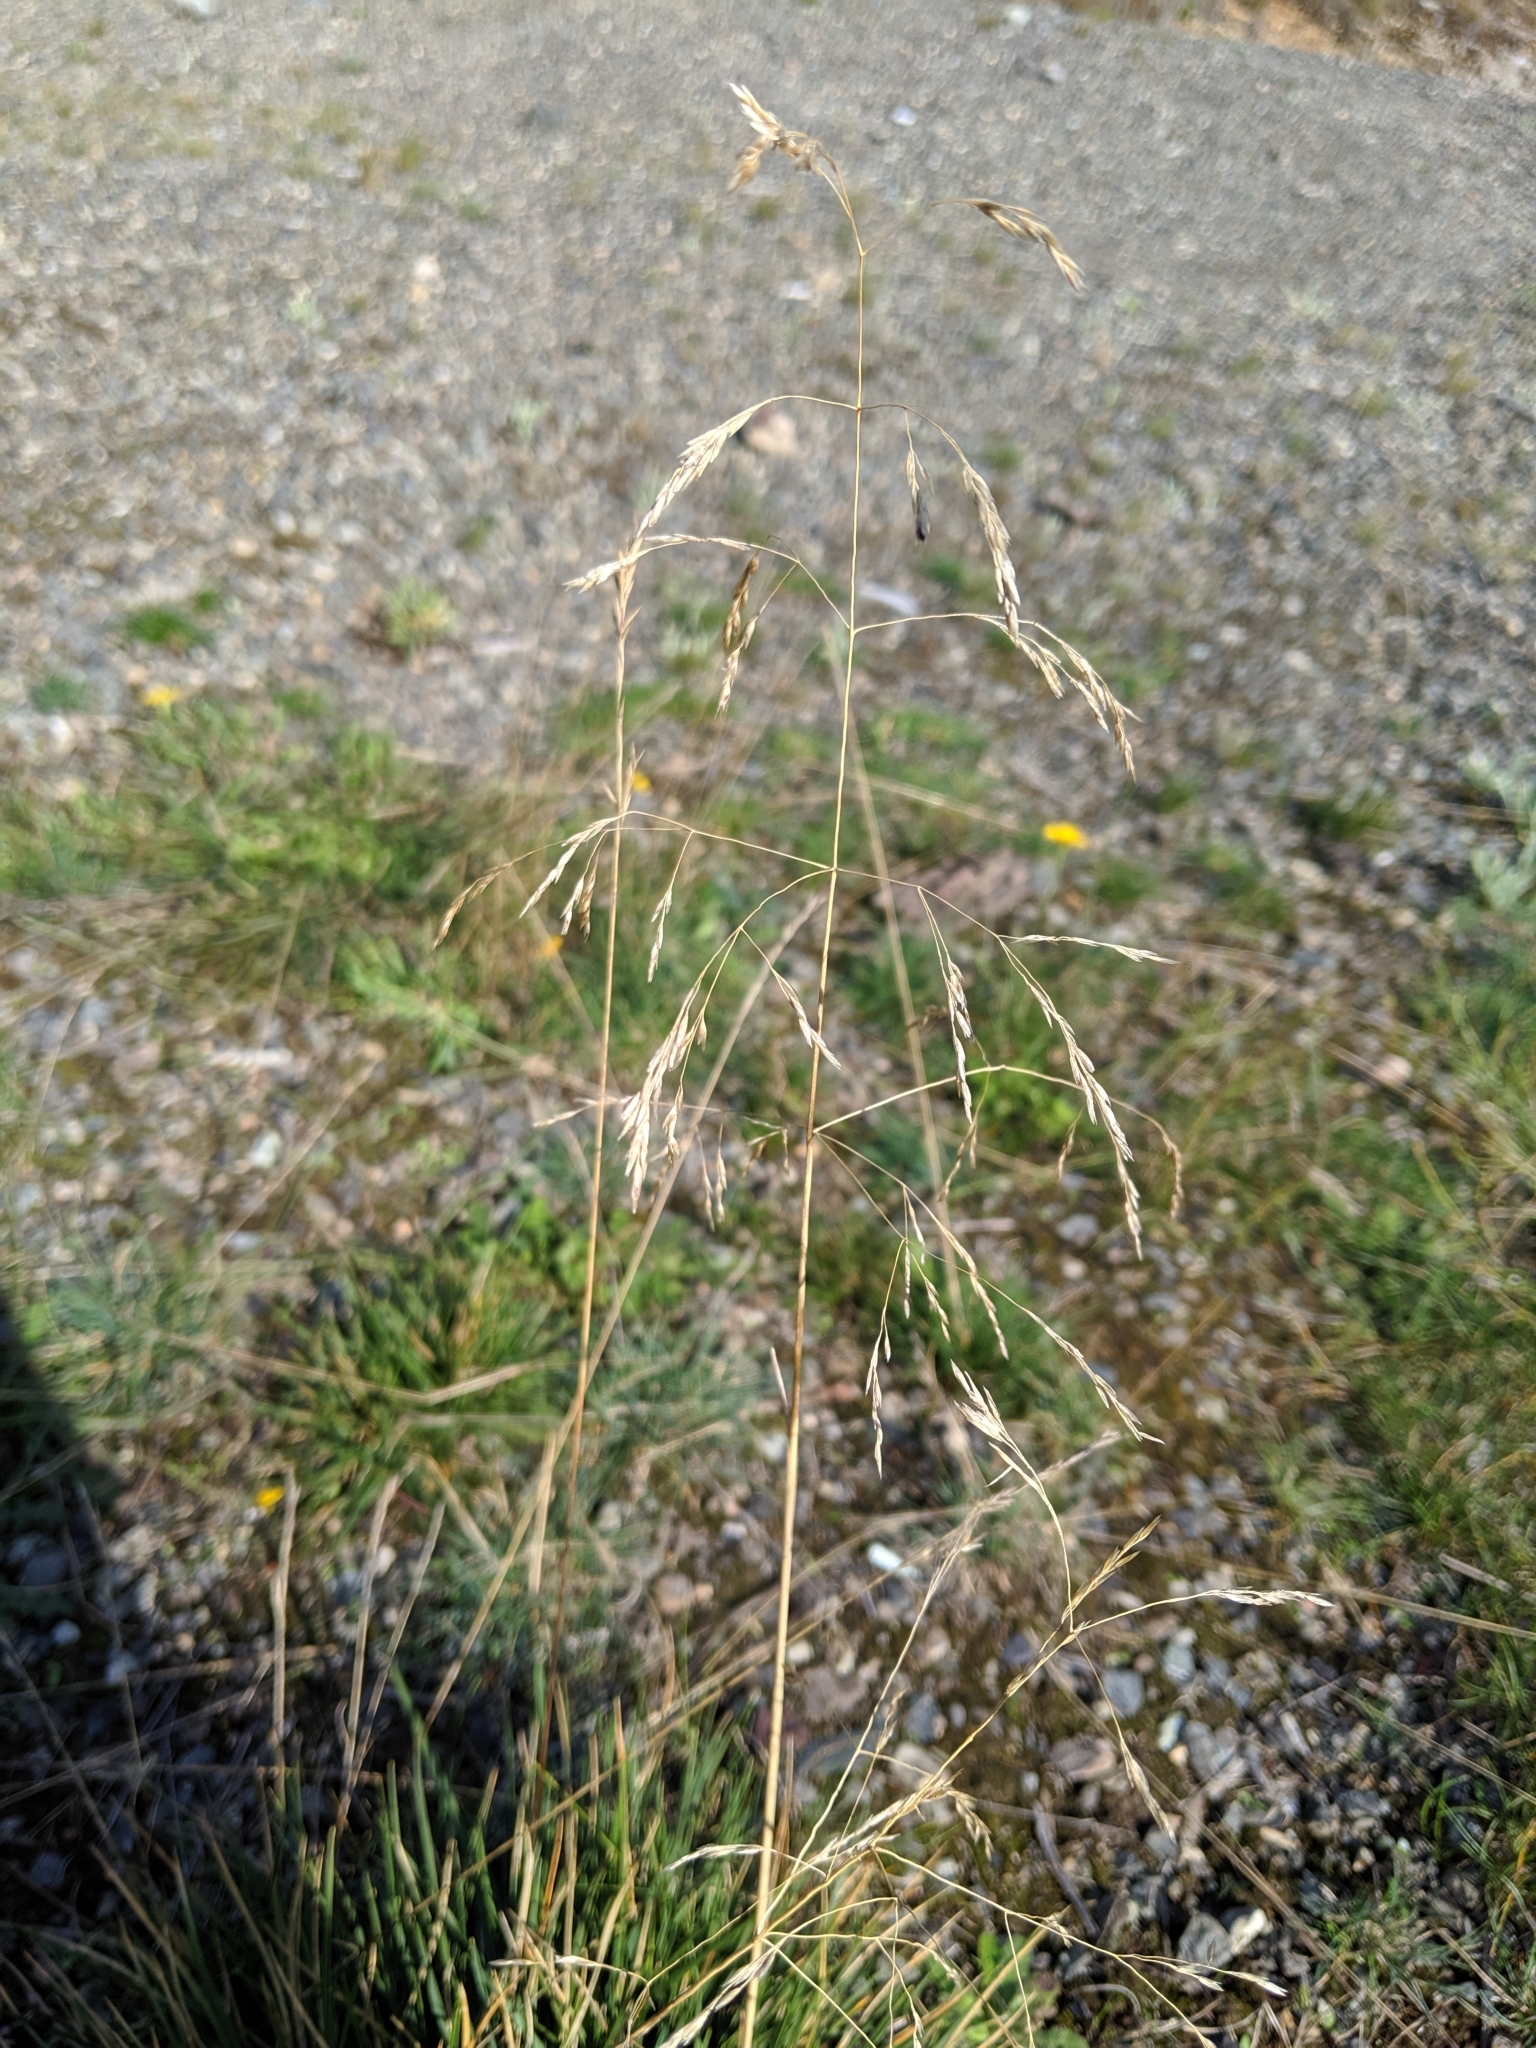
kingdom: Plantae
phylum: Tracheophyta
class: Liliopsida
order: Poales
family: Poaceae
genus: Deschampsia
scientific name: Deschampsia cespitosa
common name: Tufted hair-grass
